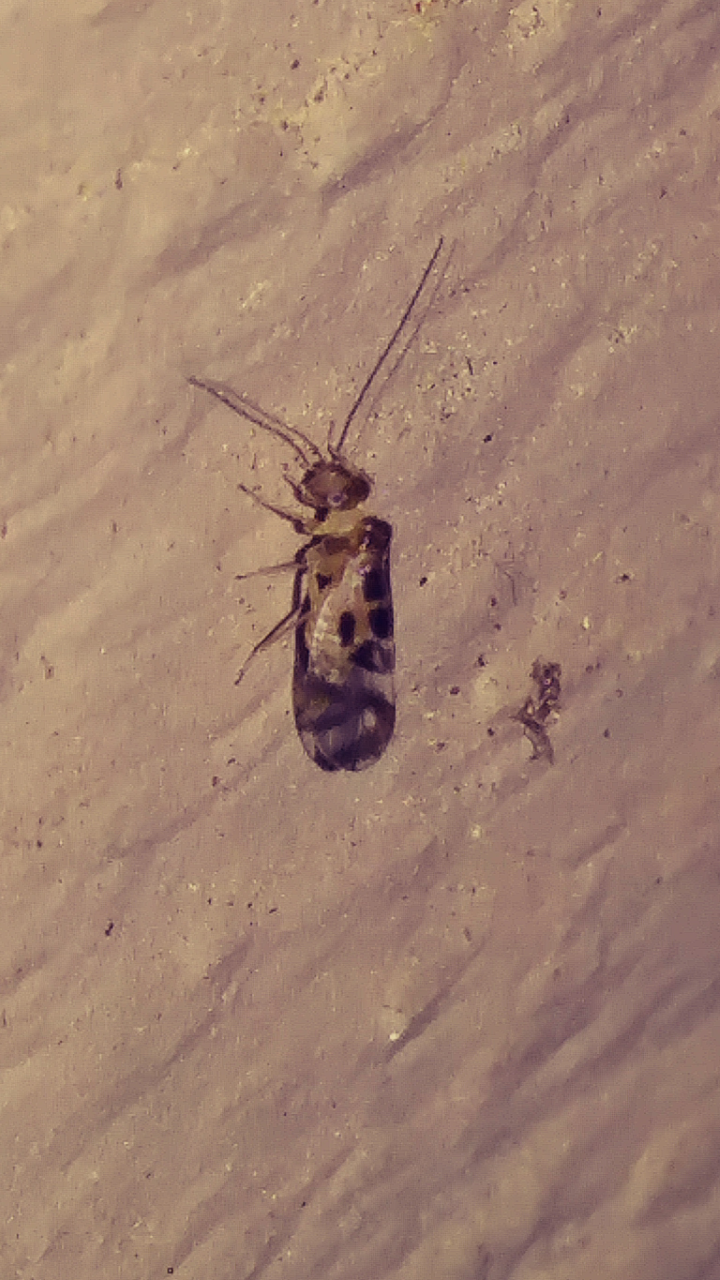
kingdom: Animalia
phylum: Arthropoda
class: Insecta
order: Psocodea
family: Stenopsocidae
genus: Graphopsocus
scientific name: Graphopsocus cruciatus
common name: Lizard bark louse
